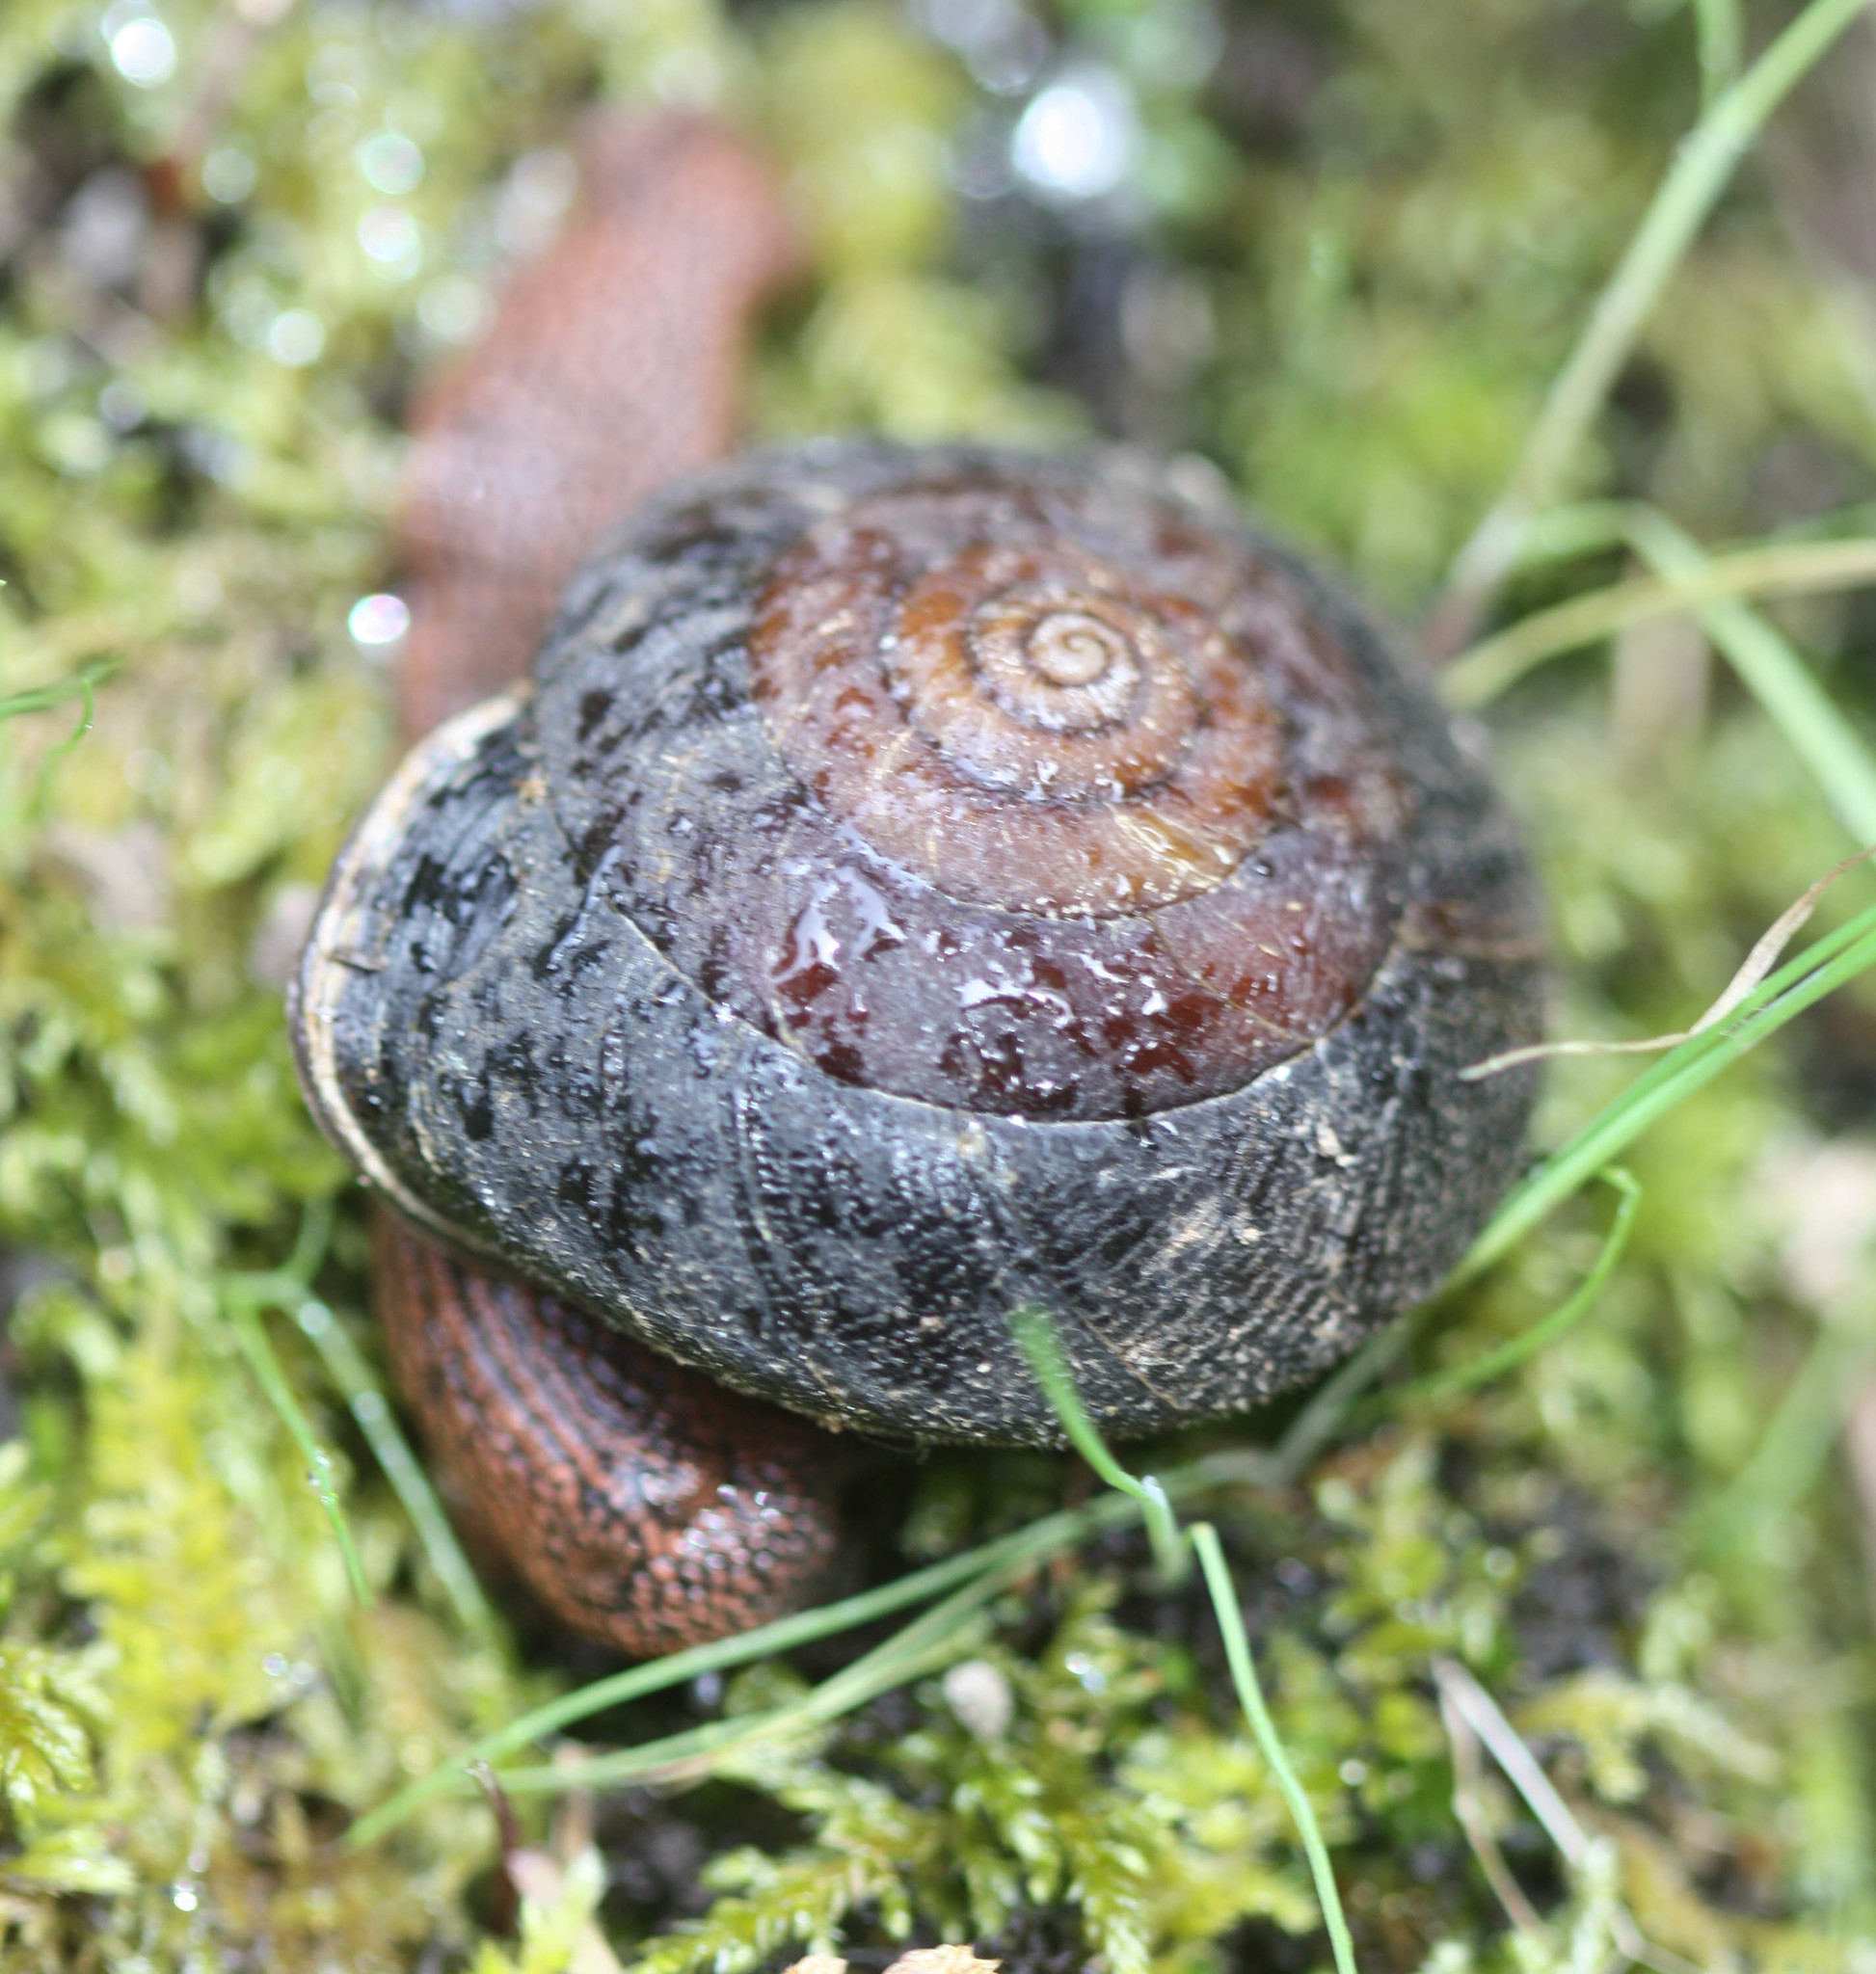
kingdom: Animalia
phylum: Mollusca
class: Gastropoda
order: Stylommatophora
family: Xanthonychidae
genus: Monadenia
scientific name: Monadenia infumata
